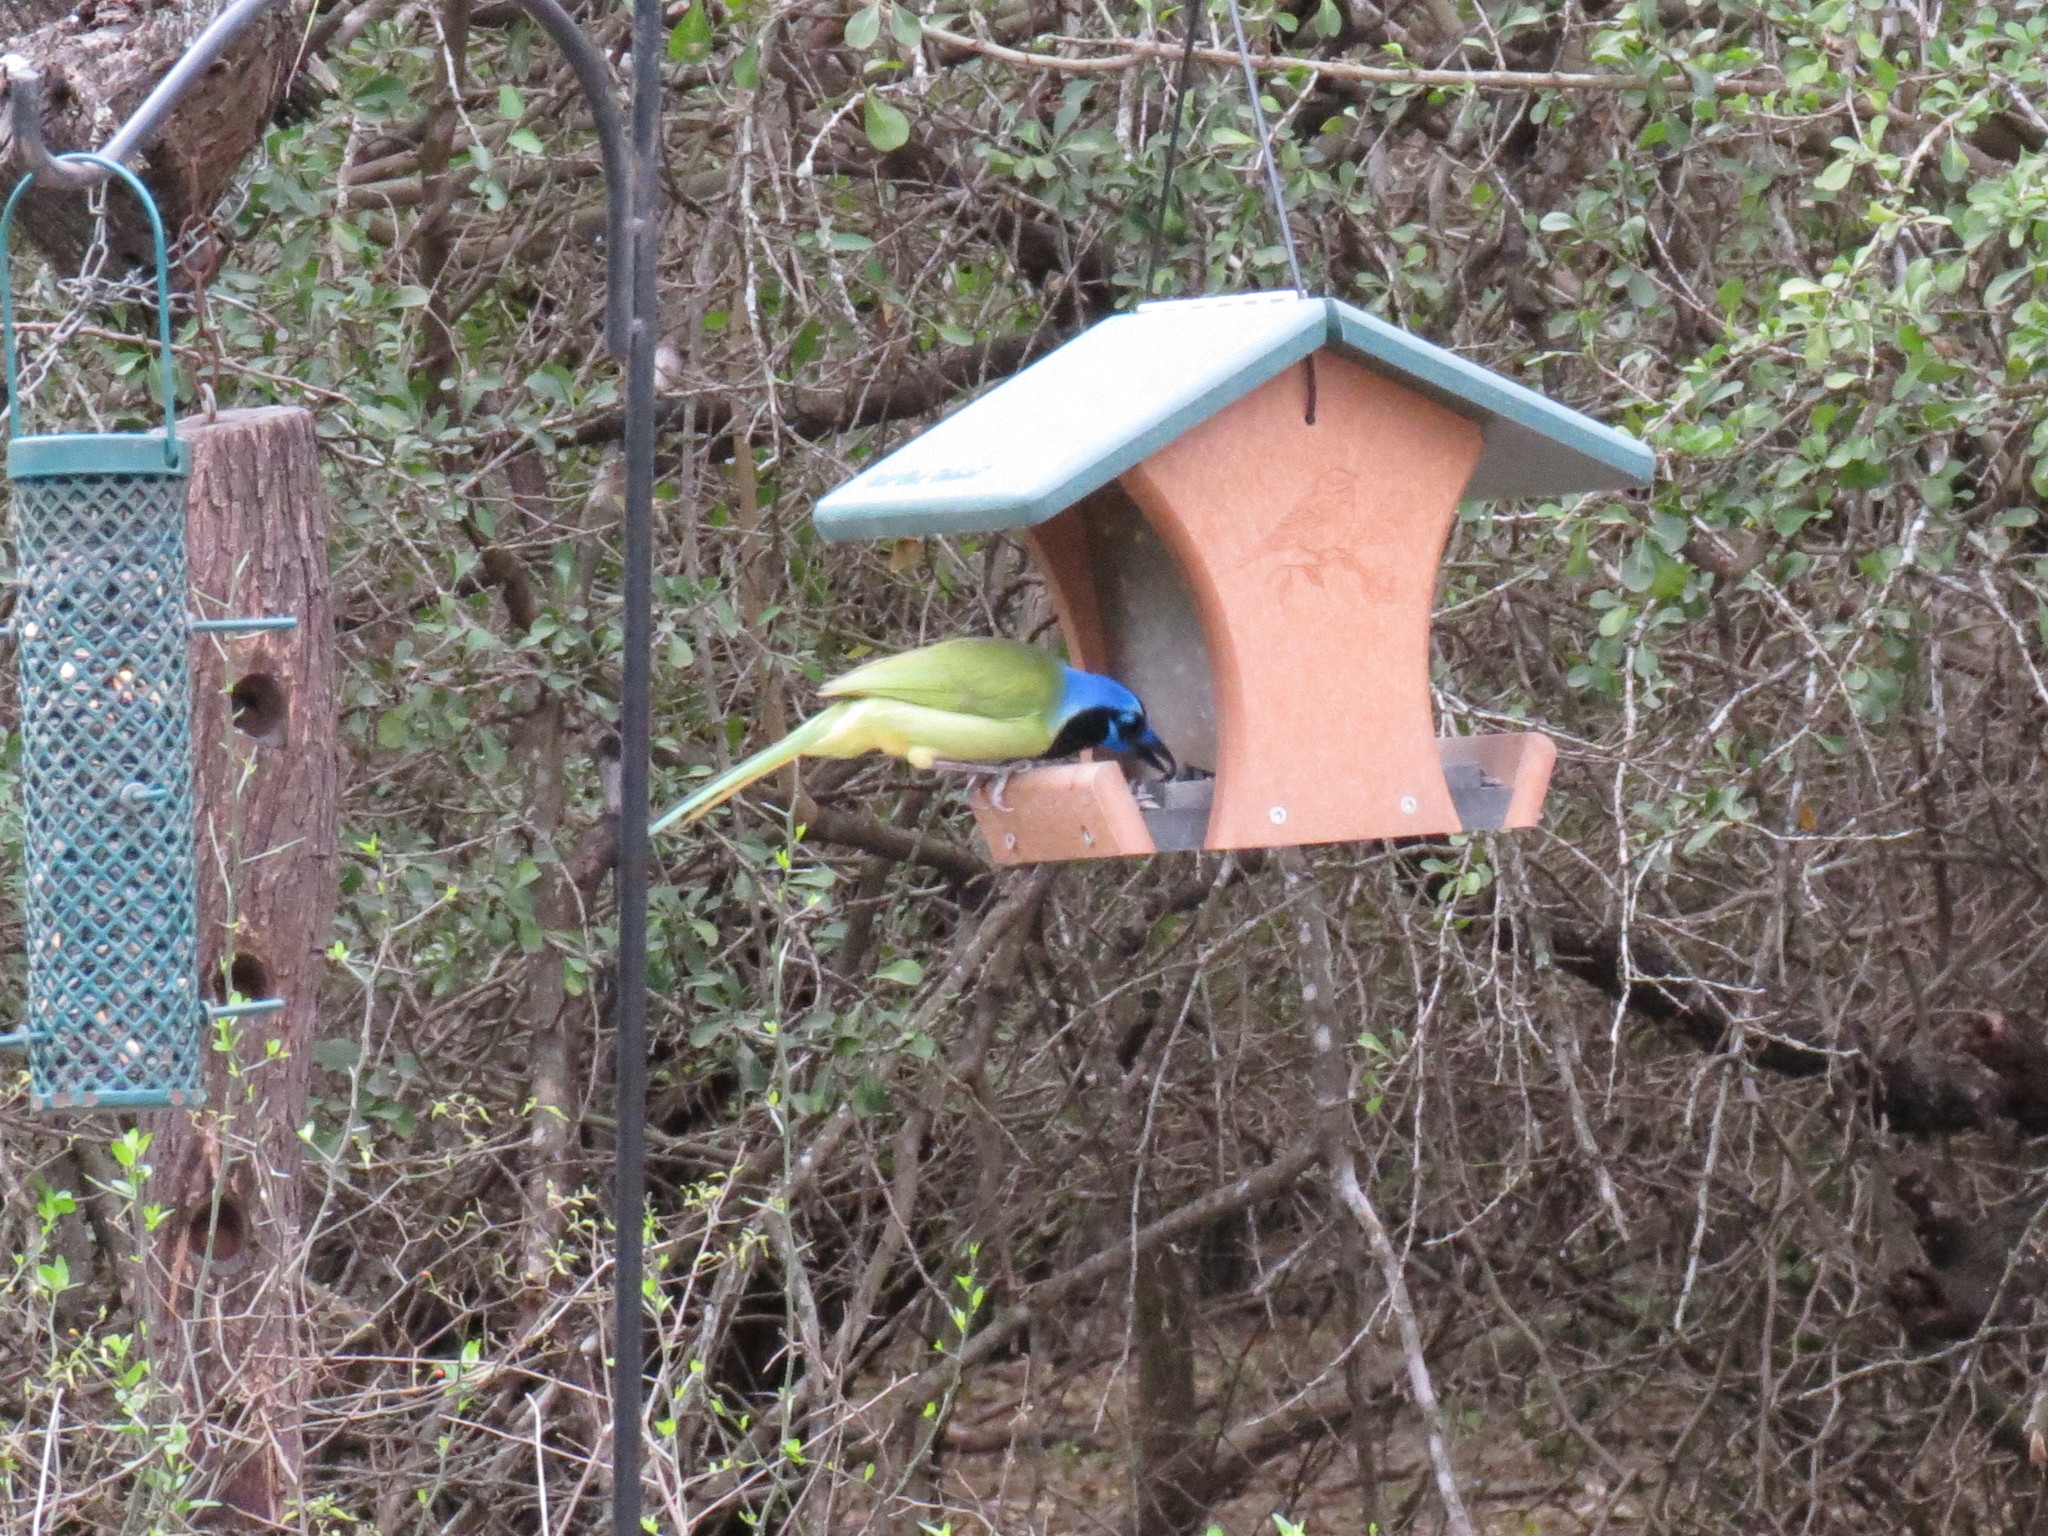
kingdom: Animalia
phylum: Chordata
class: Aves
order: Passeriformes
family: Corvidae
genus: Cyanocorax
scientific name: Cyanocorax yncas
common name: Green jay
